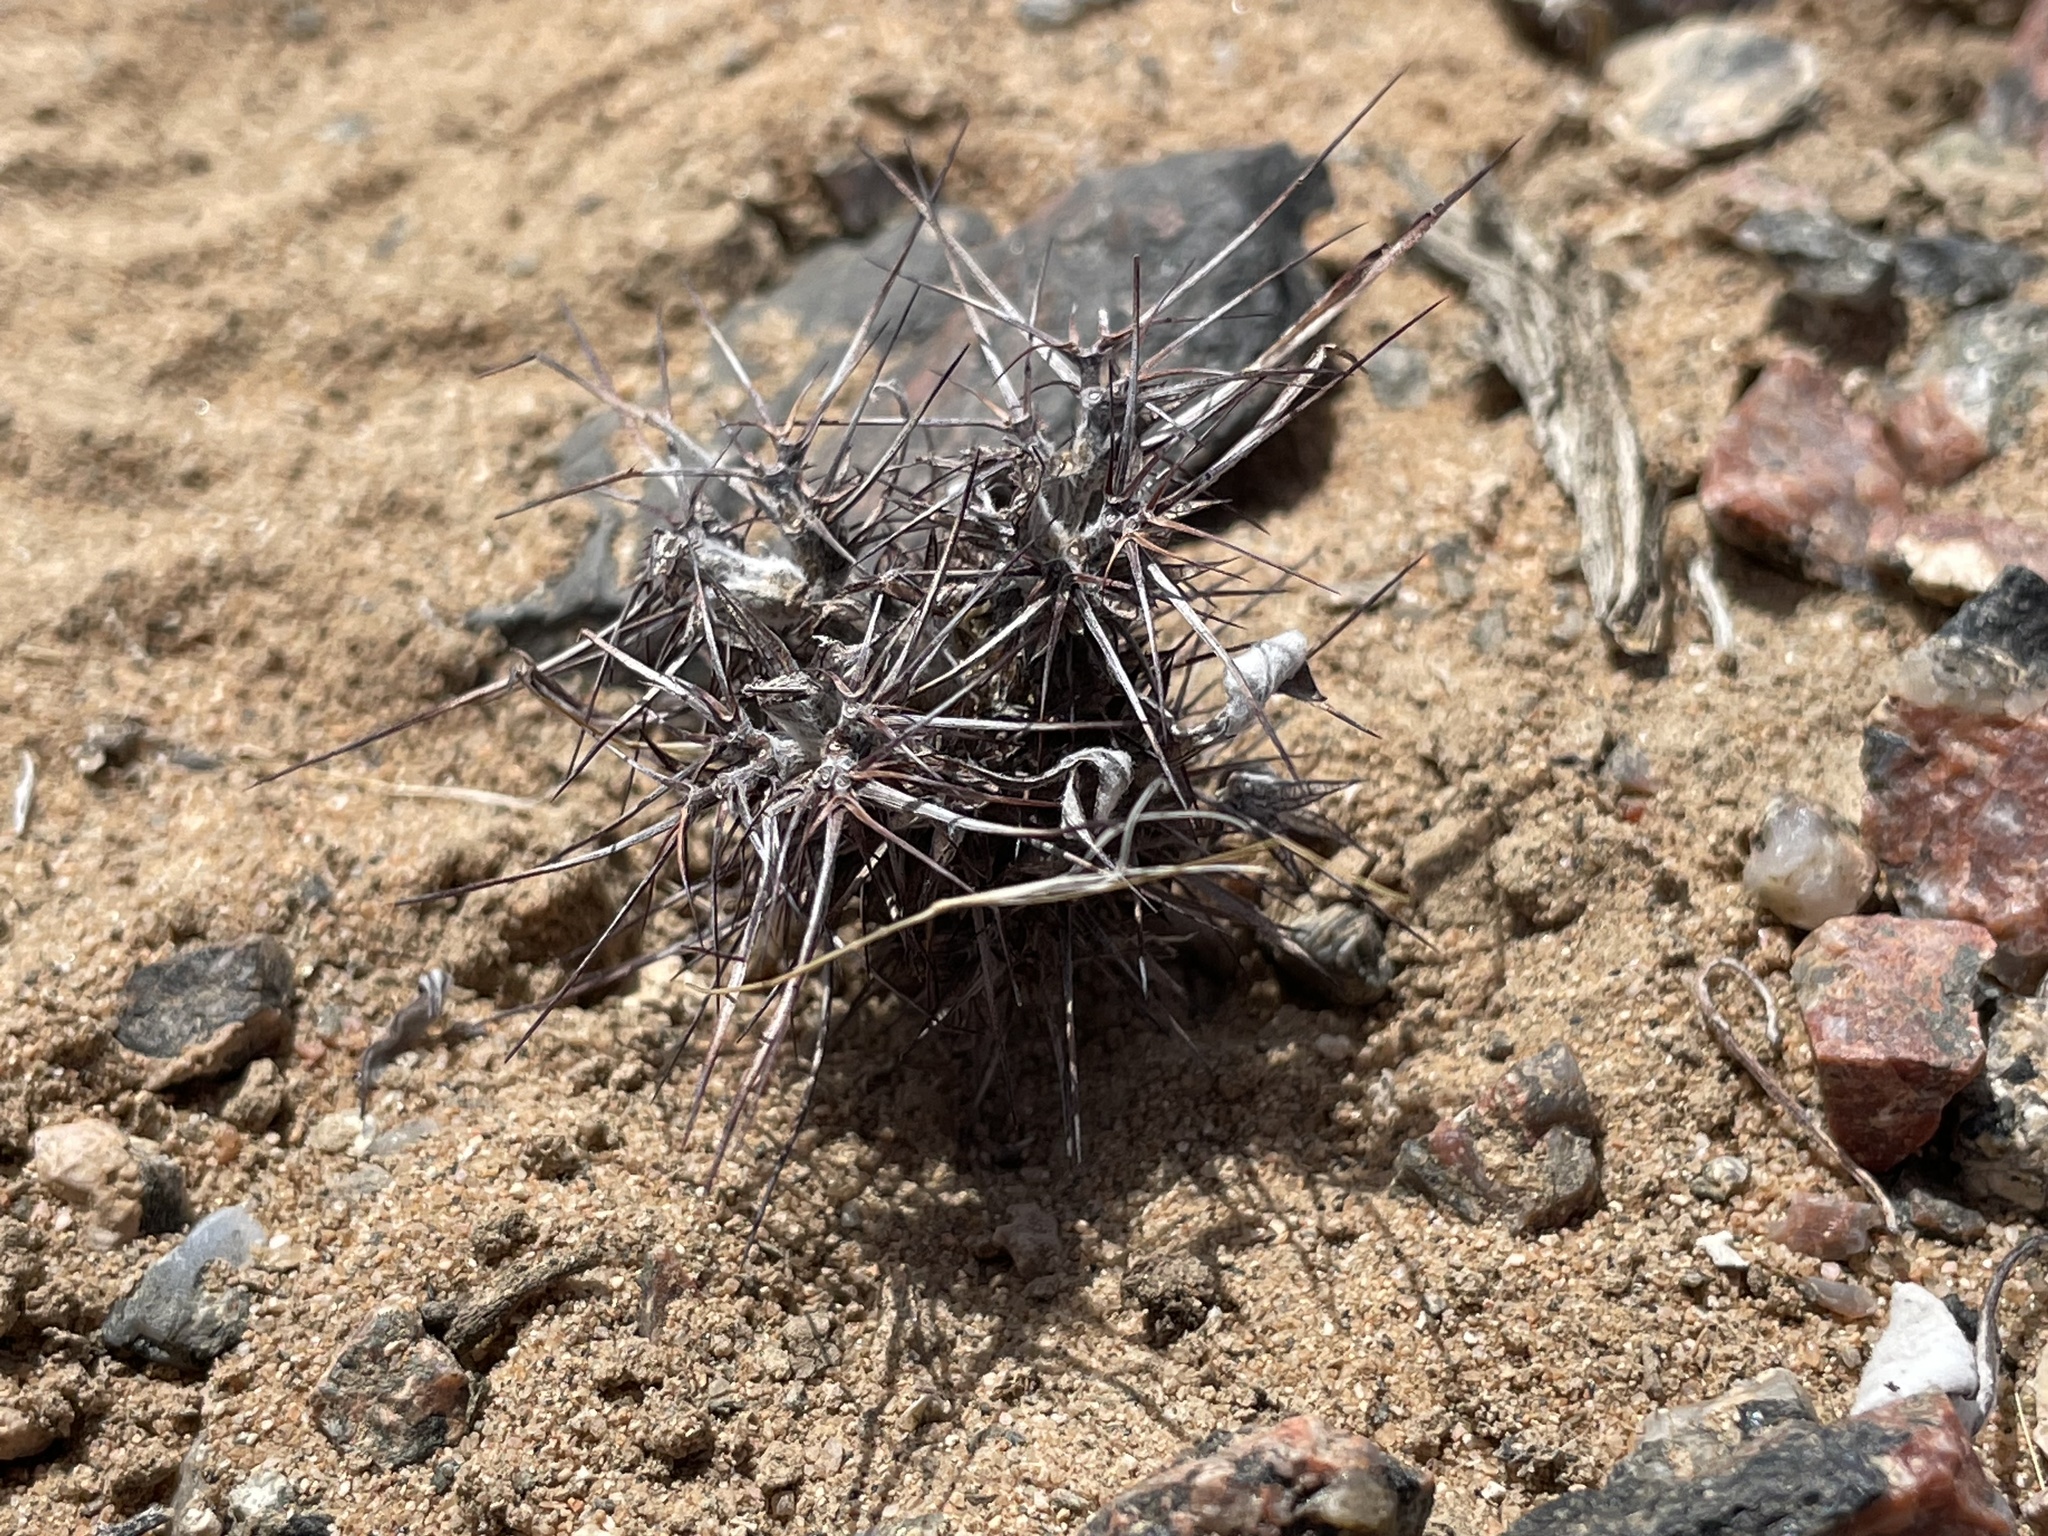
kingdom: Plantae
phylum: Tracheophyta
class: Magnoliopsida
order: Caryophyllales
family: Polygonaceae
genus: Chorizanthe
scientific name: Chorizanthe rigida
